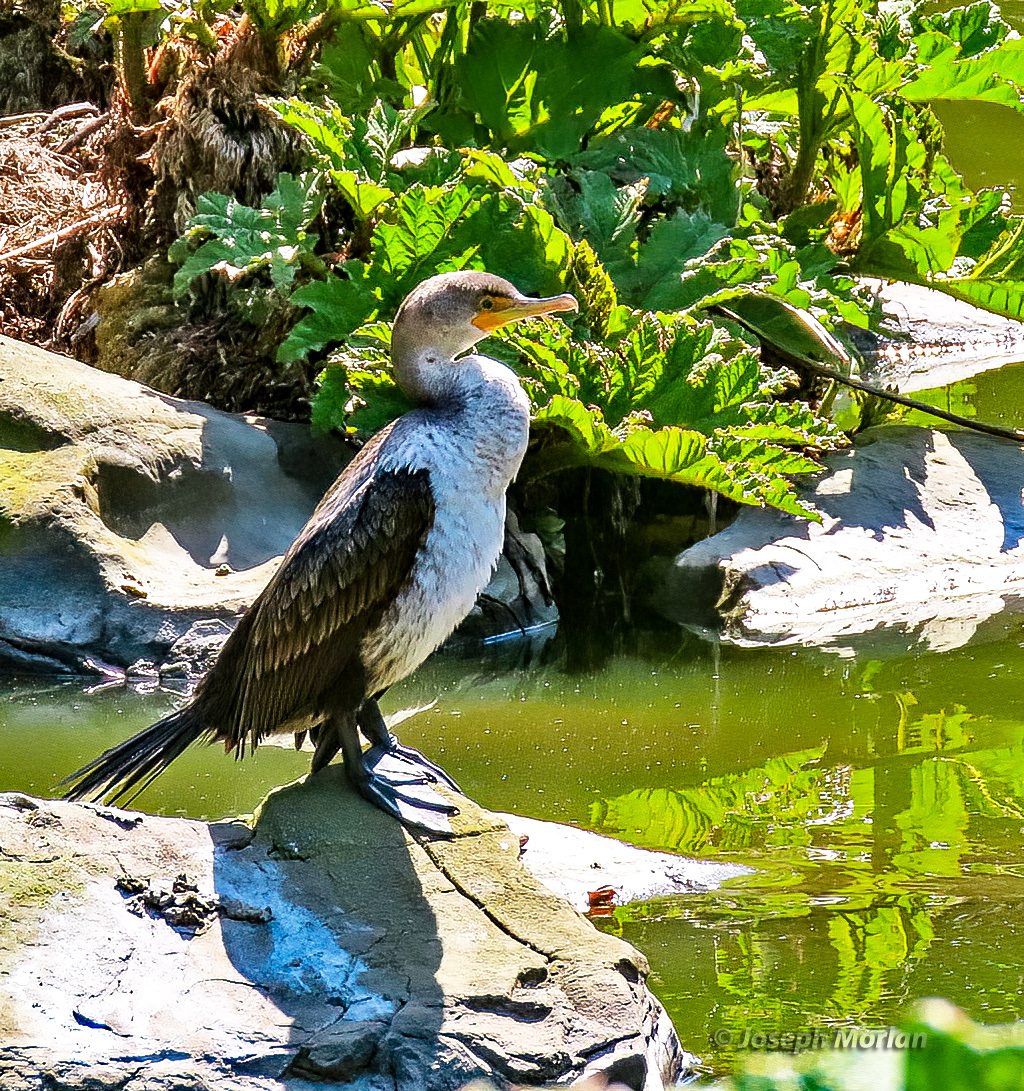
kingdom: Animalia
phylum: Chordata
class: Aves
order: Suliformes
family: Phalacrocoracidae
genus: Phalacrocorax
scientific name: Phalacrocorax auritus
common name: Double-crested cormorant
